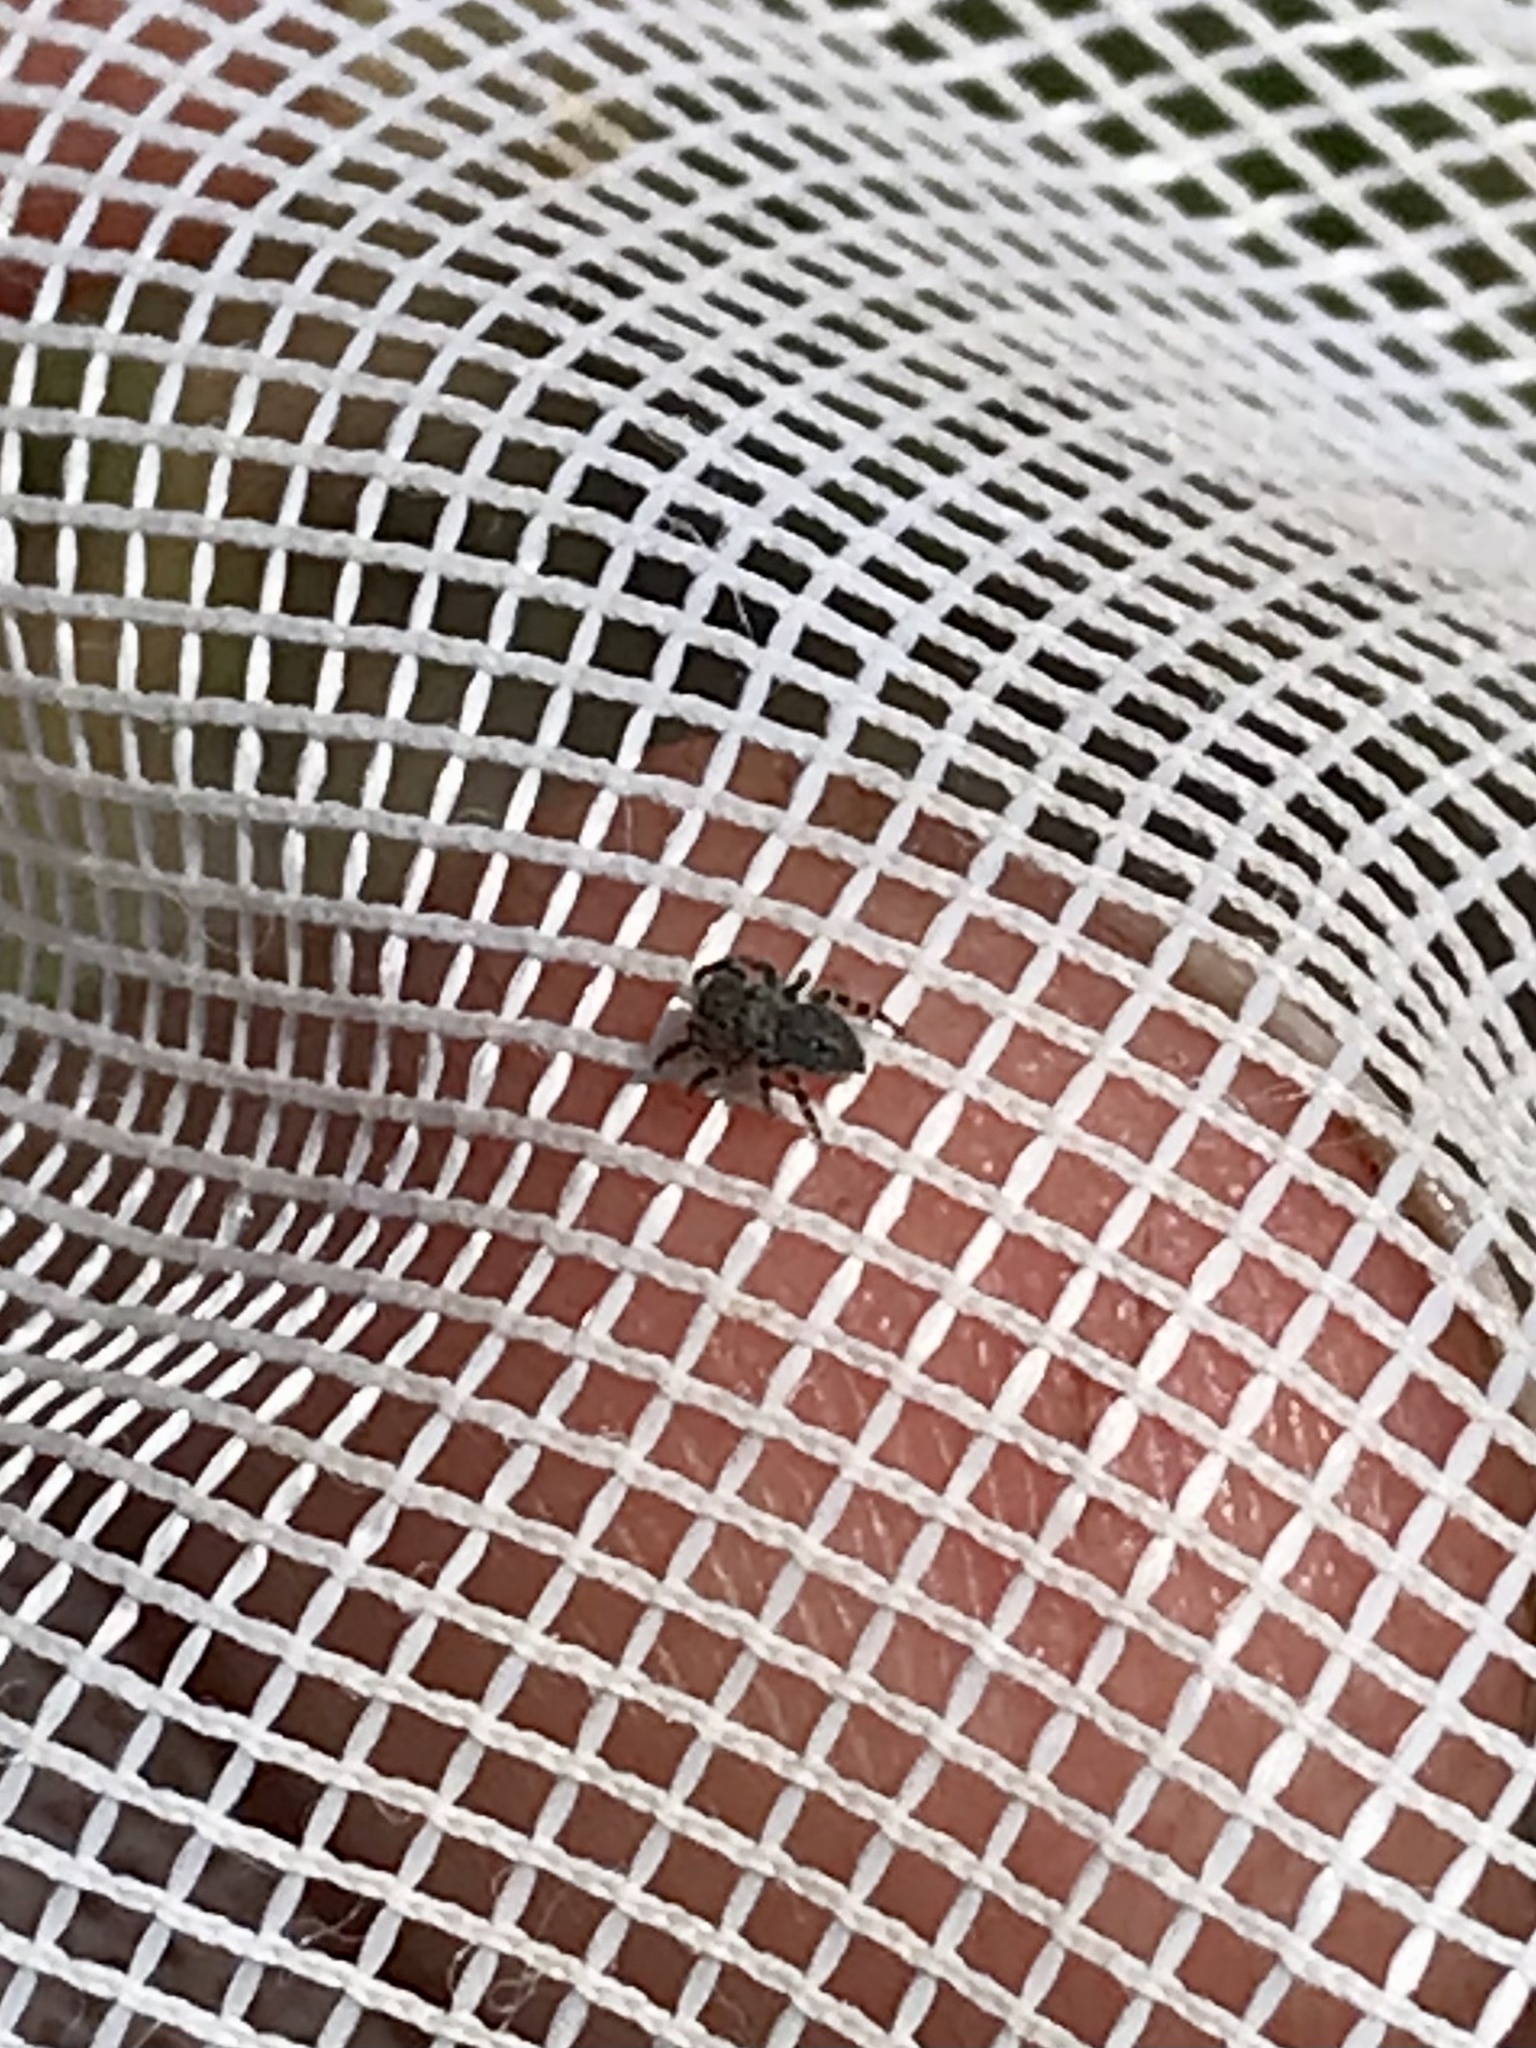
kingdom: Animalia
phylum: Arthropoda
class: Arachnida
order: Araneae
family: Salticidae
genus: Talavera
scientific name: Talavera minuta
